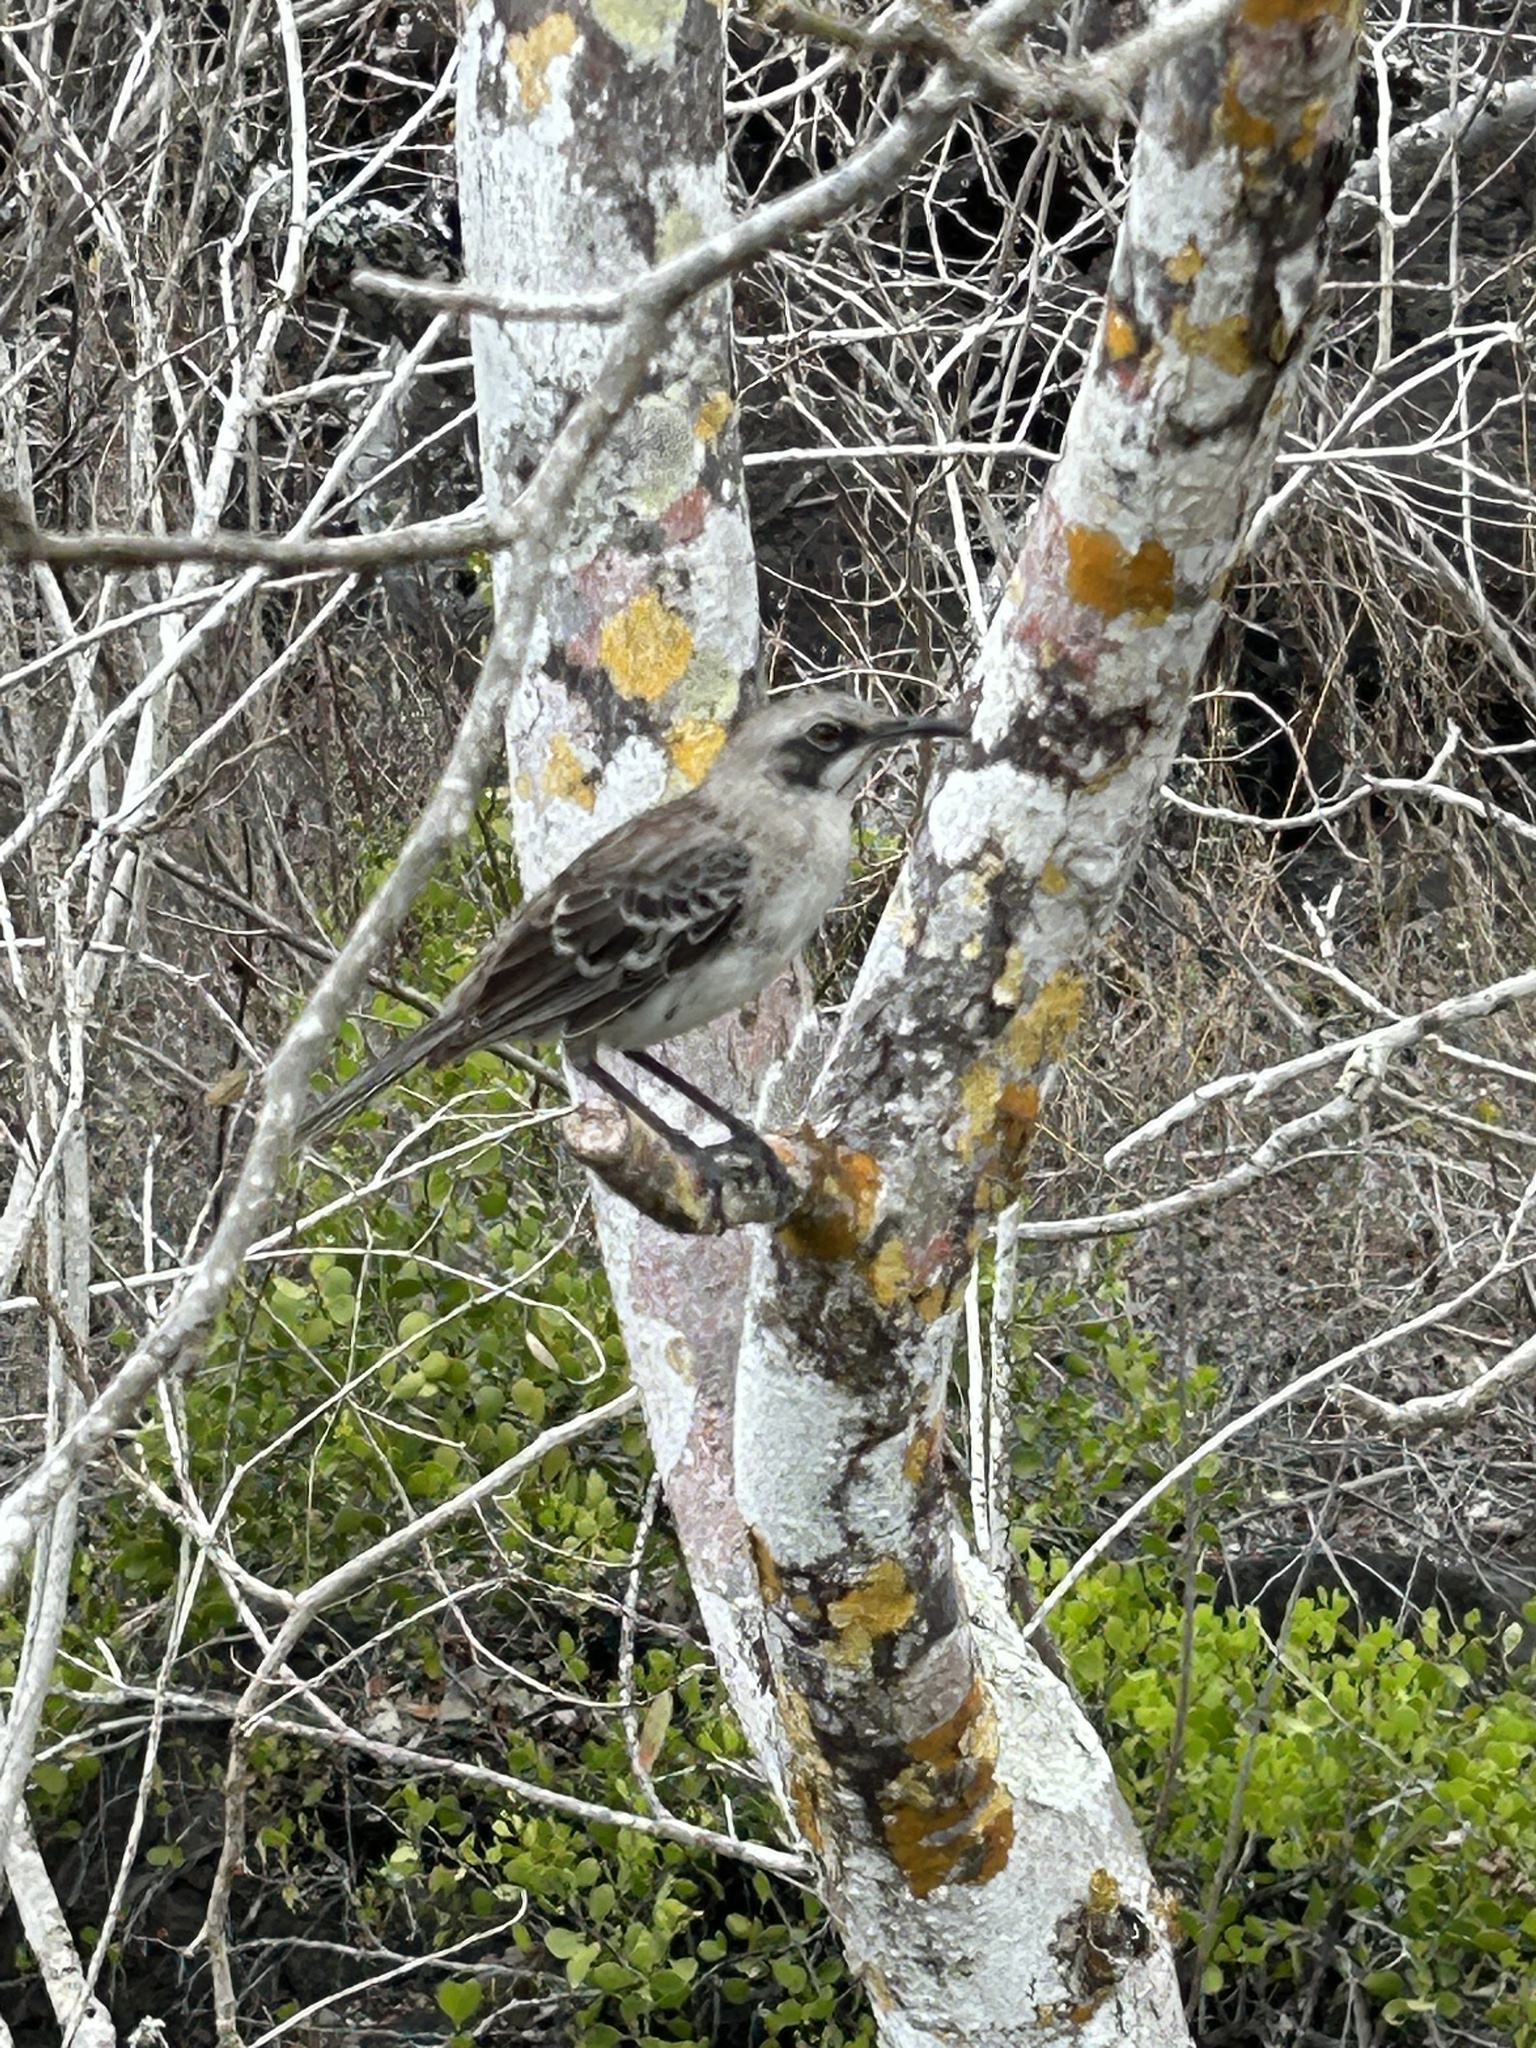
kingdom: Animalia
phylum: Chordata
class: Aves
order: Passeriformes
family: Mimidae
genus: Mimus
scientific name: Mimus melanotis
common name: San cristobal mockingbird
